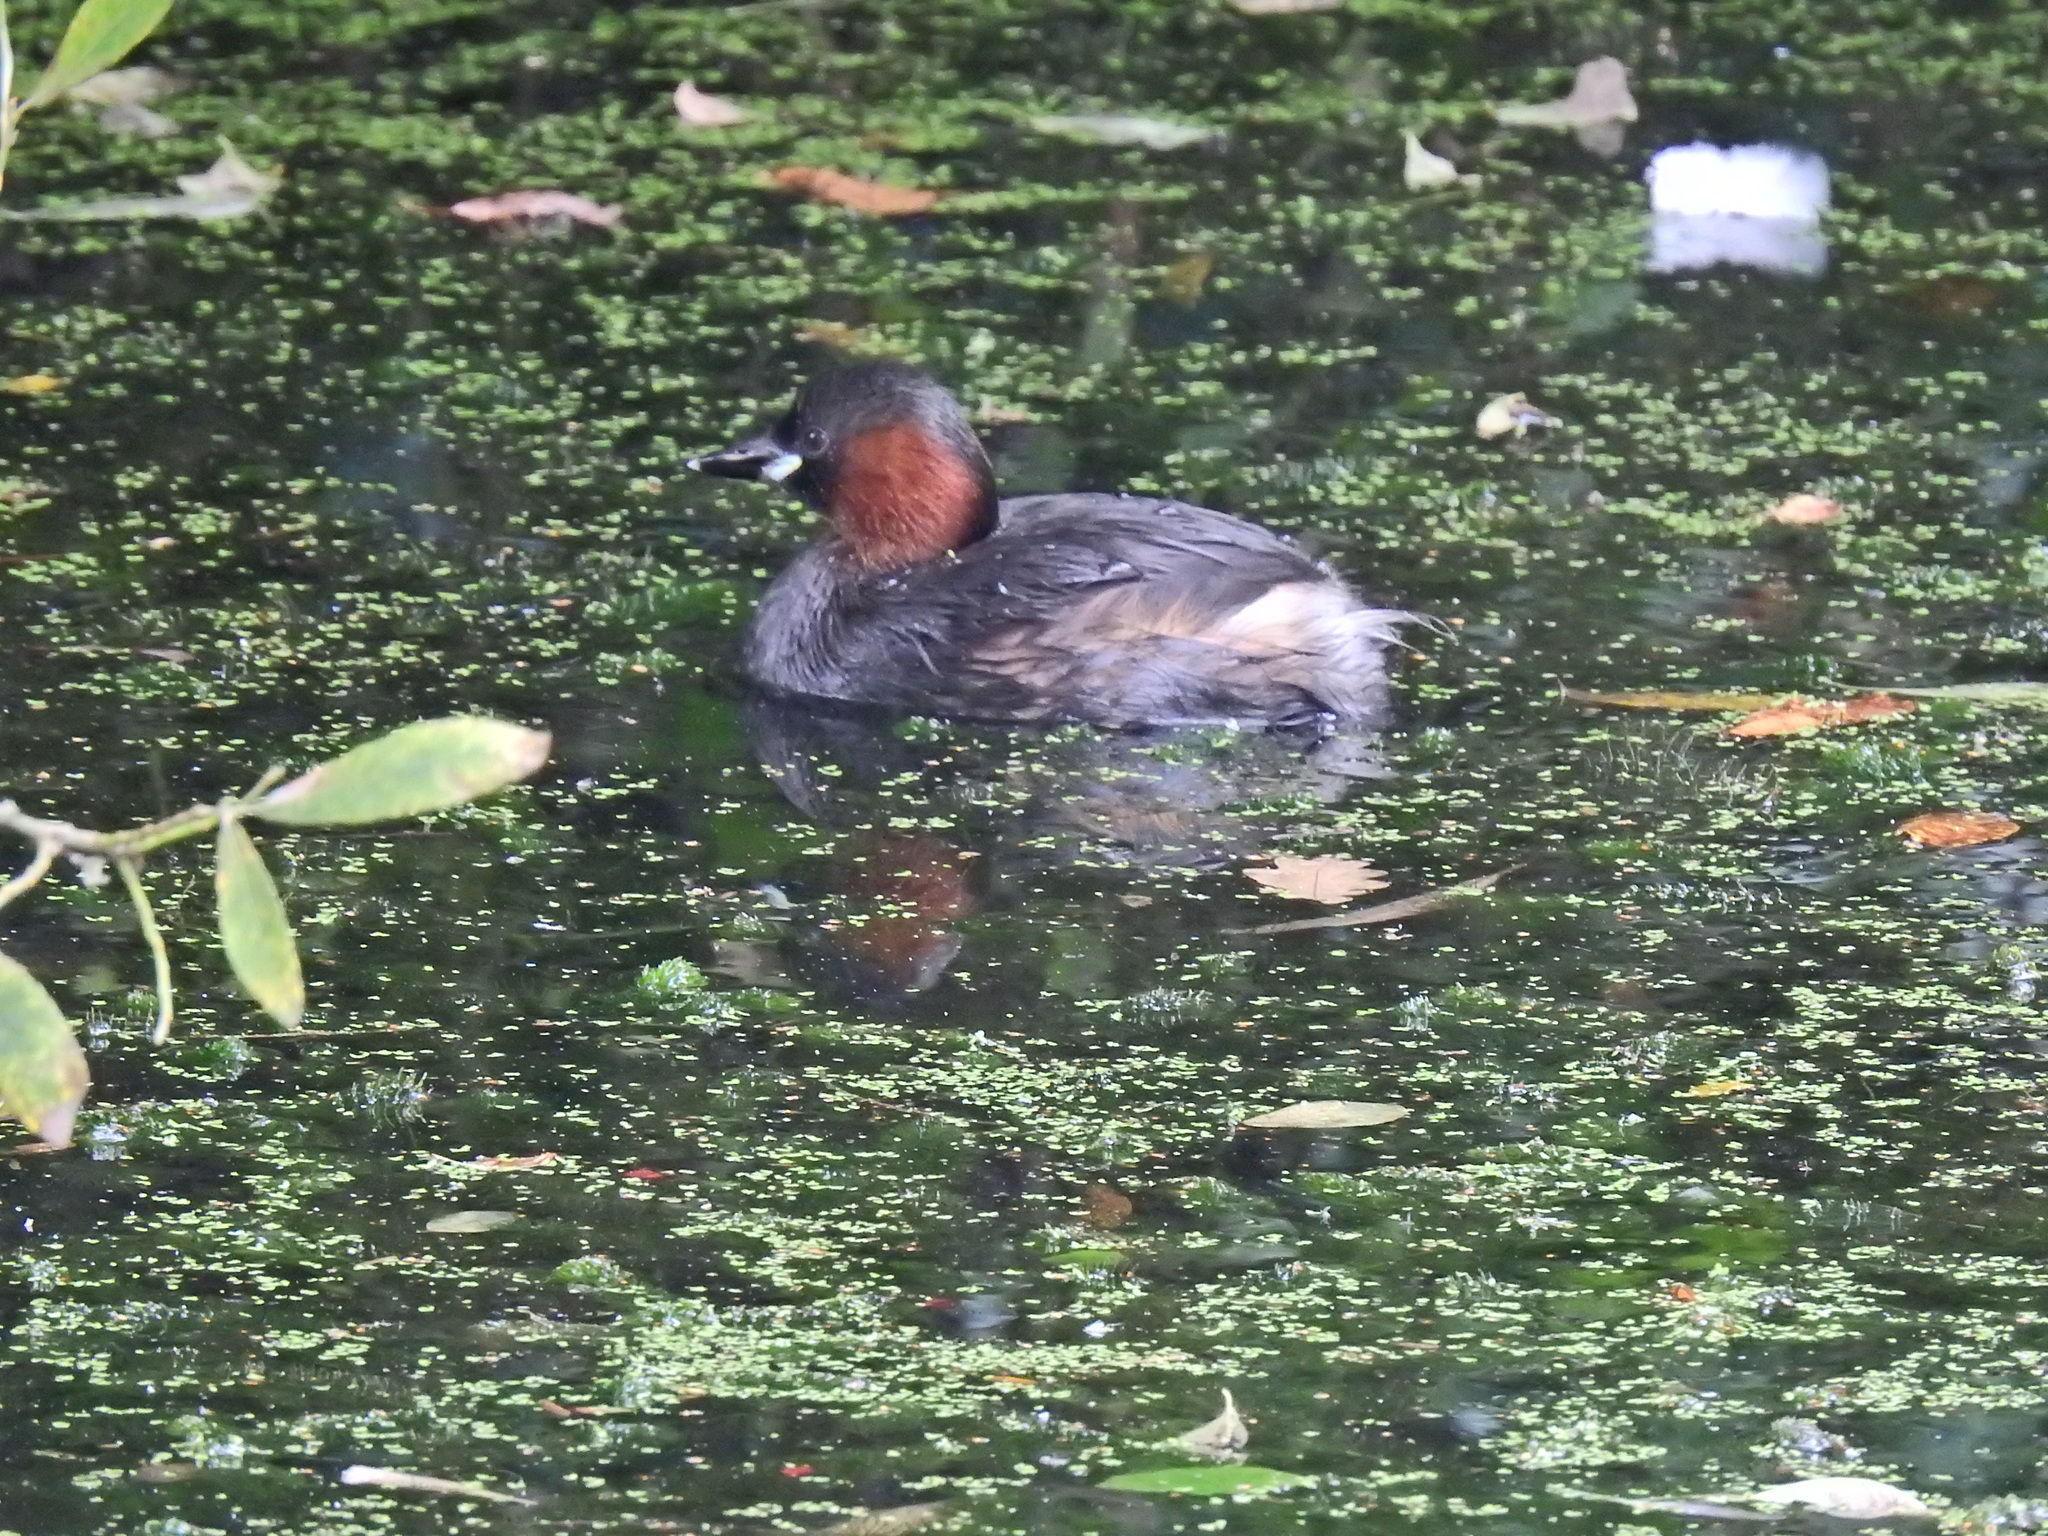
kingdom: Animalia
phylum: Chordata
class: Aves
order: Podicipediformes
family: Podicipedidae
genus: Tachybaptus
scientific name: Tachybaptus ruficollis
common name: Little grebe
